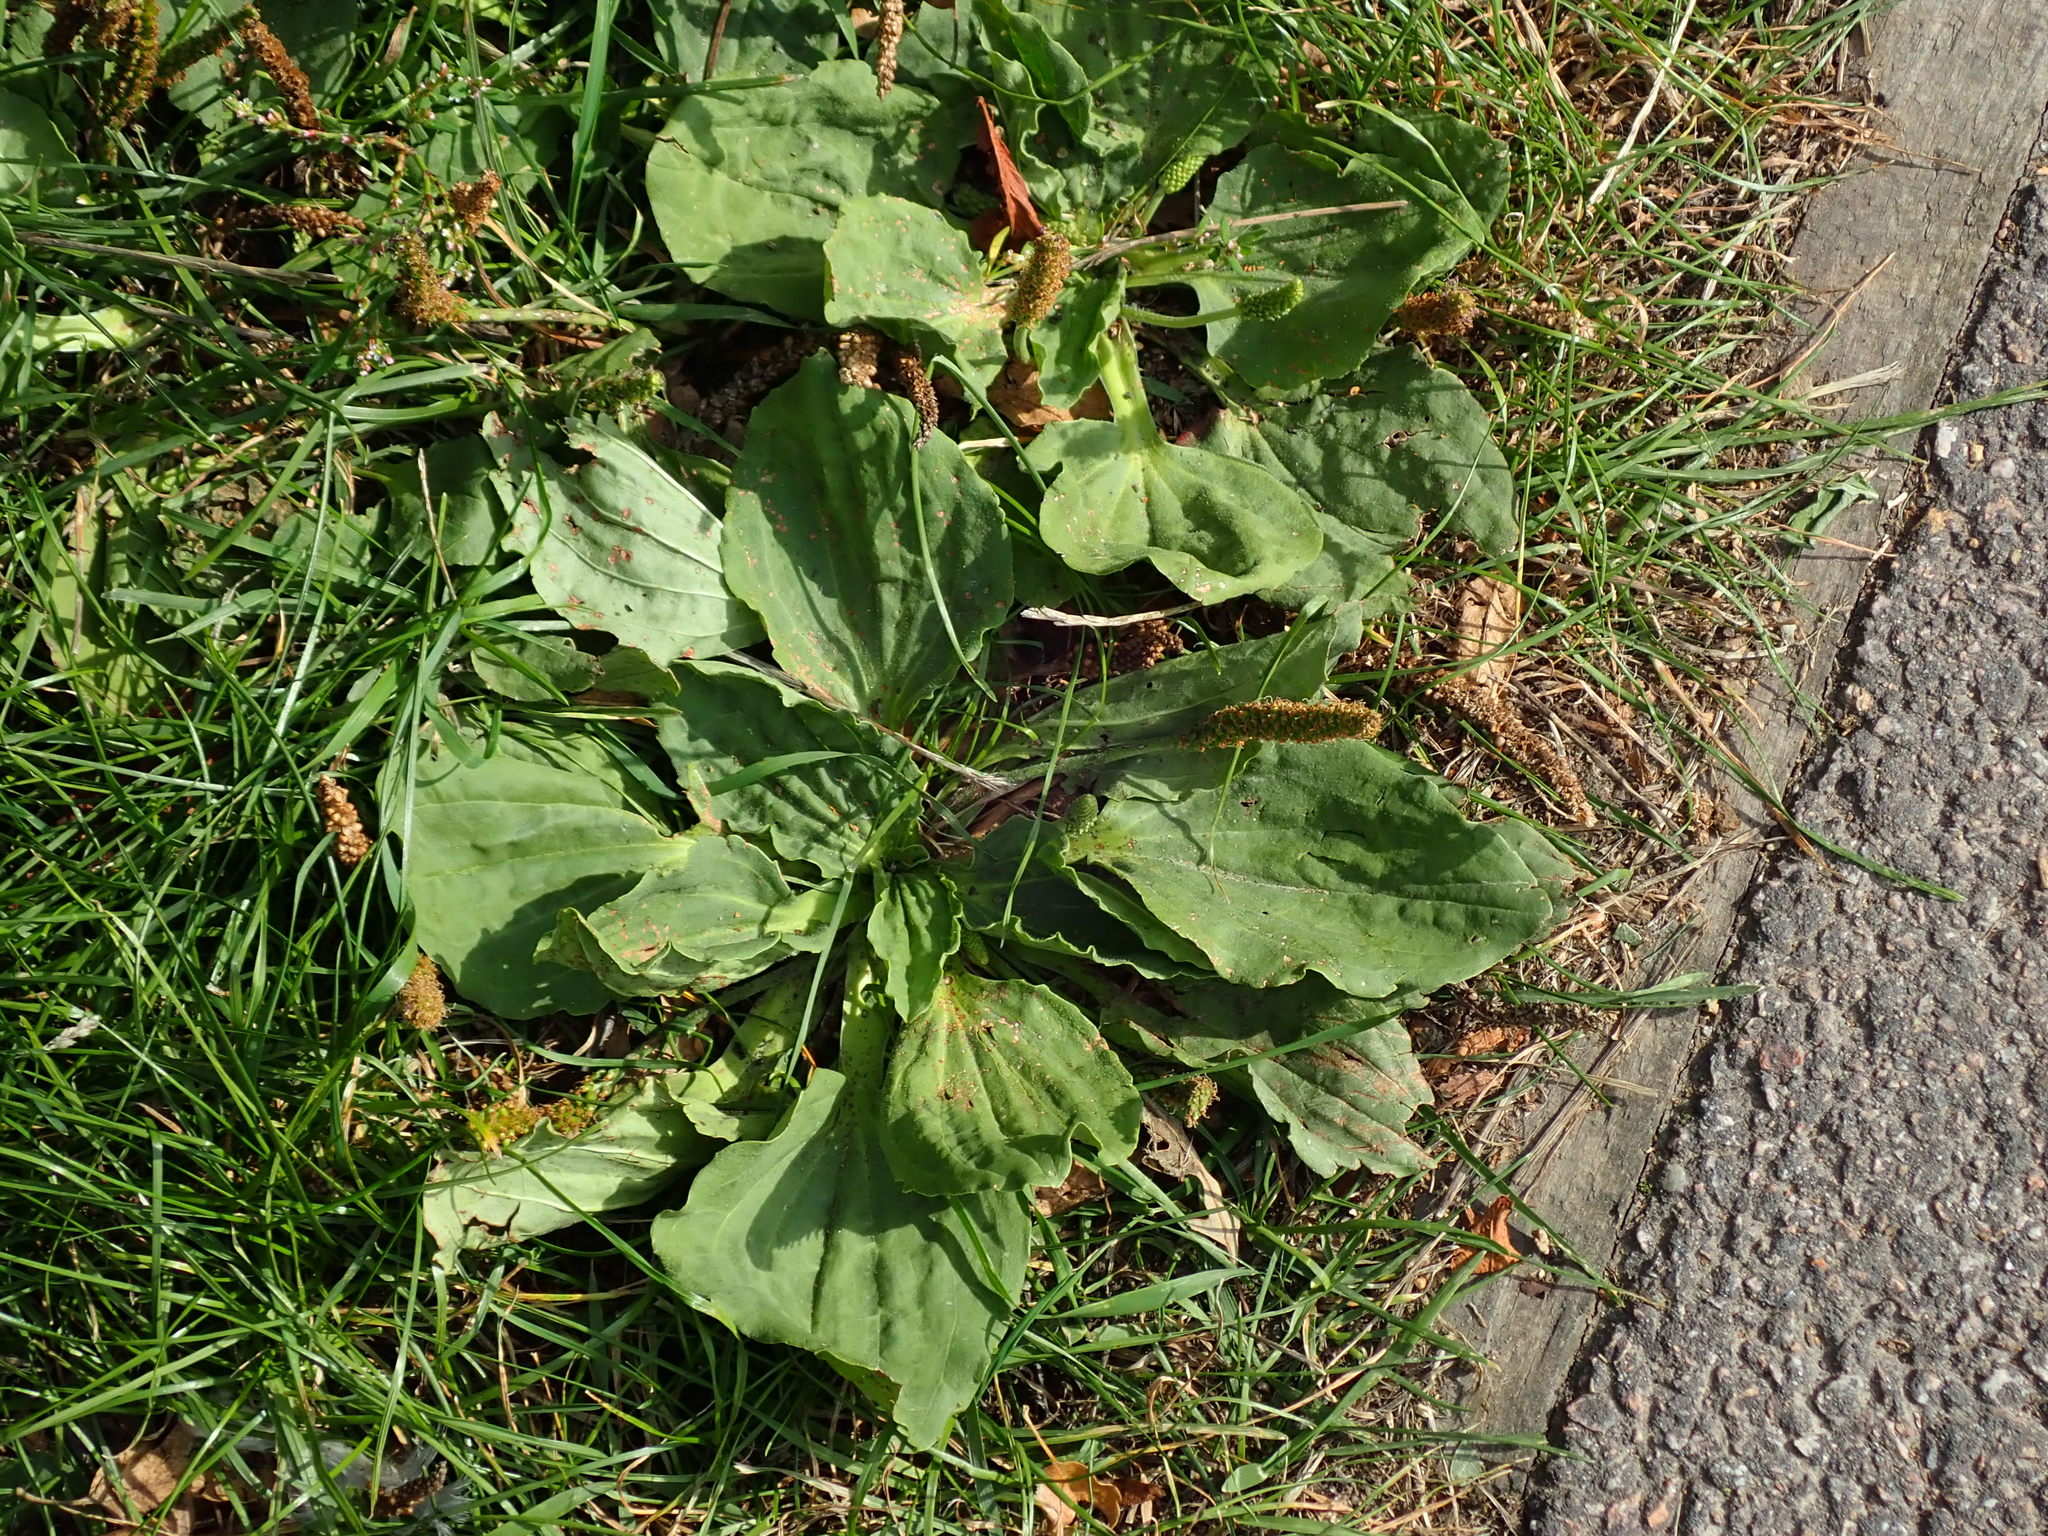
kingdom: Plantae
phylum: Tracheophyta
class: Magnoliopsida
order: Lamiales
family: Plantaginaceae
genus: Plantago
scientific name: Plantago major
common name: Common plantain
